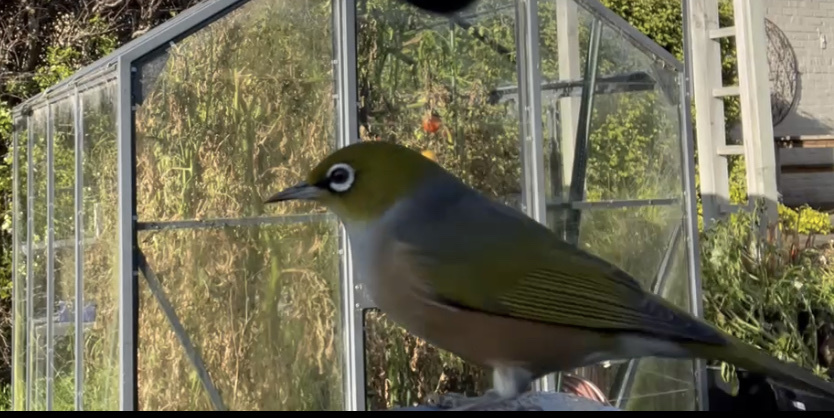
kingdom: Animalia
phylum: Chordata
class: Aves
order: Passeriformes
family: Zosteropidae
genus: Zosterops
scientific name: Zosterops lateralis
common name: Silvereye
